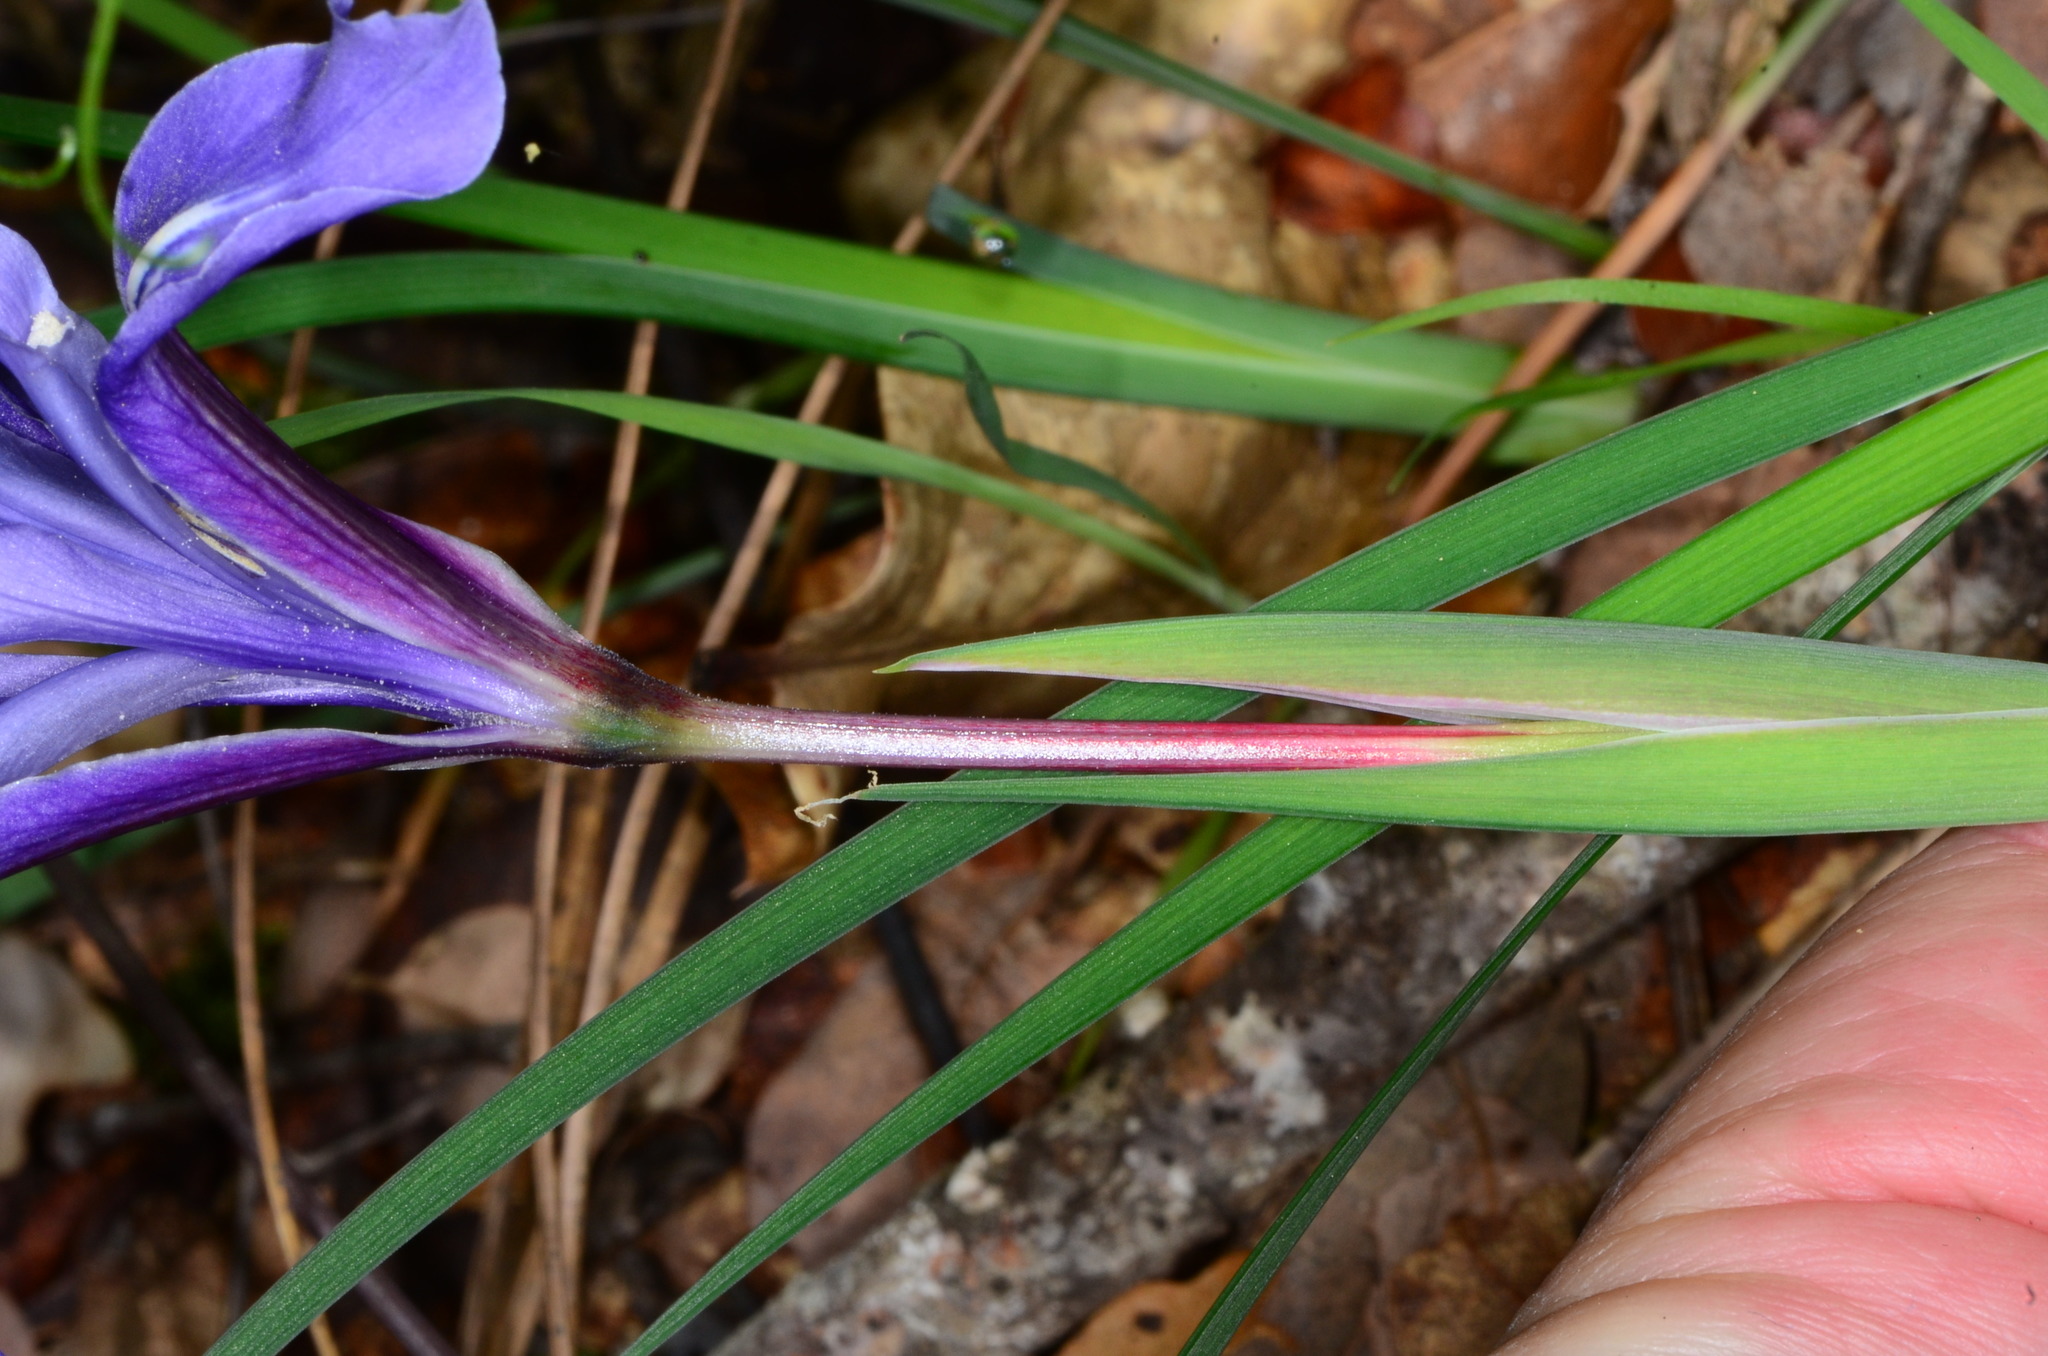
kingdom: Plantae
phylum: Tracheophyta
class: Liliopsida
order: Asparagales
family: Iridaceae
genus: Iris
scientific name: Iris macrosiphon
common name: Ground iris
